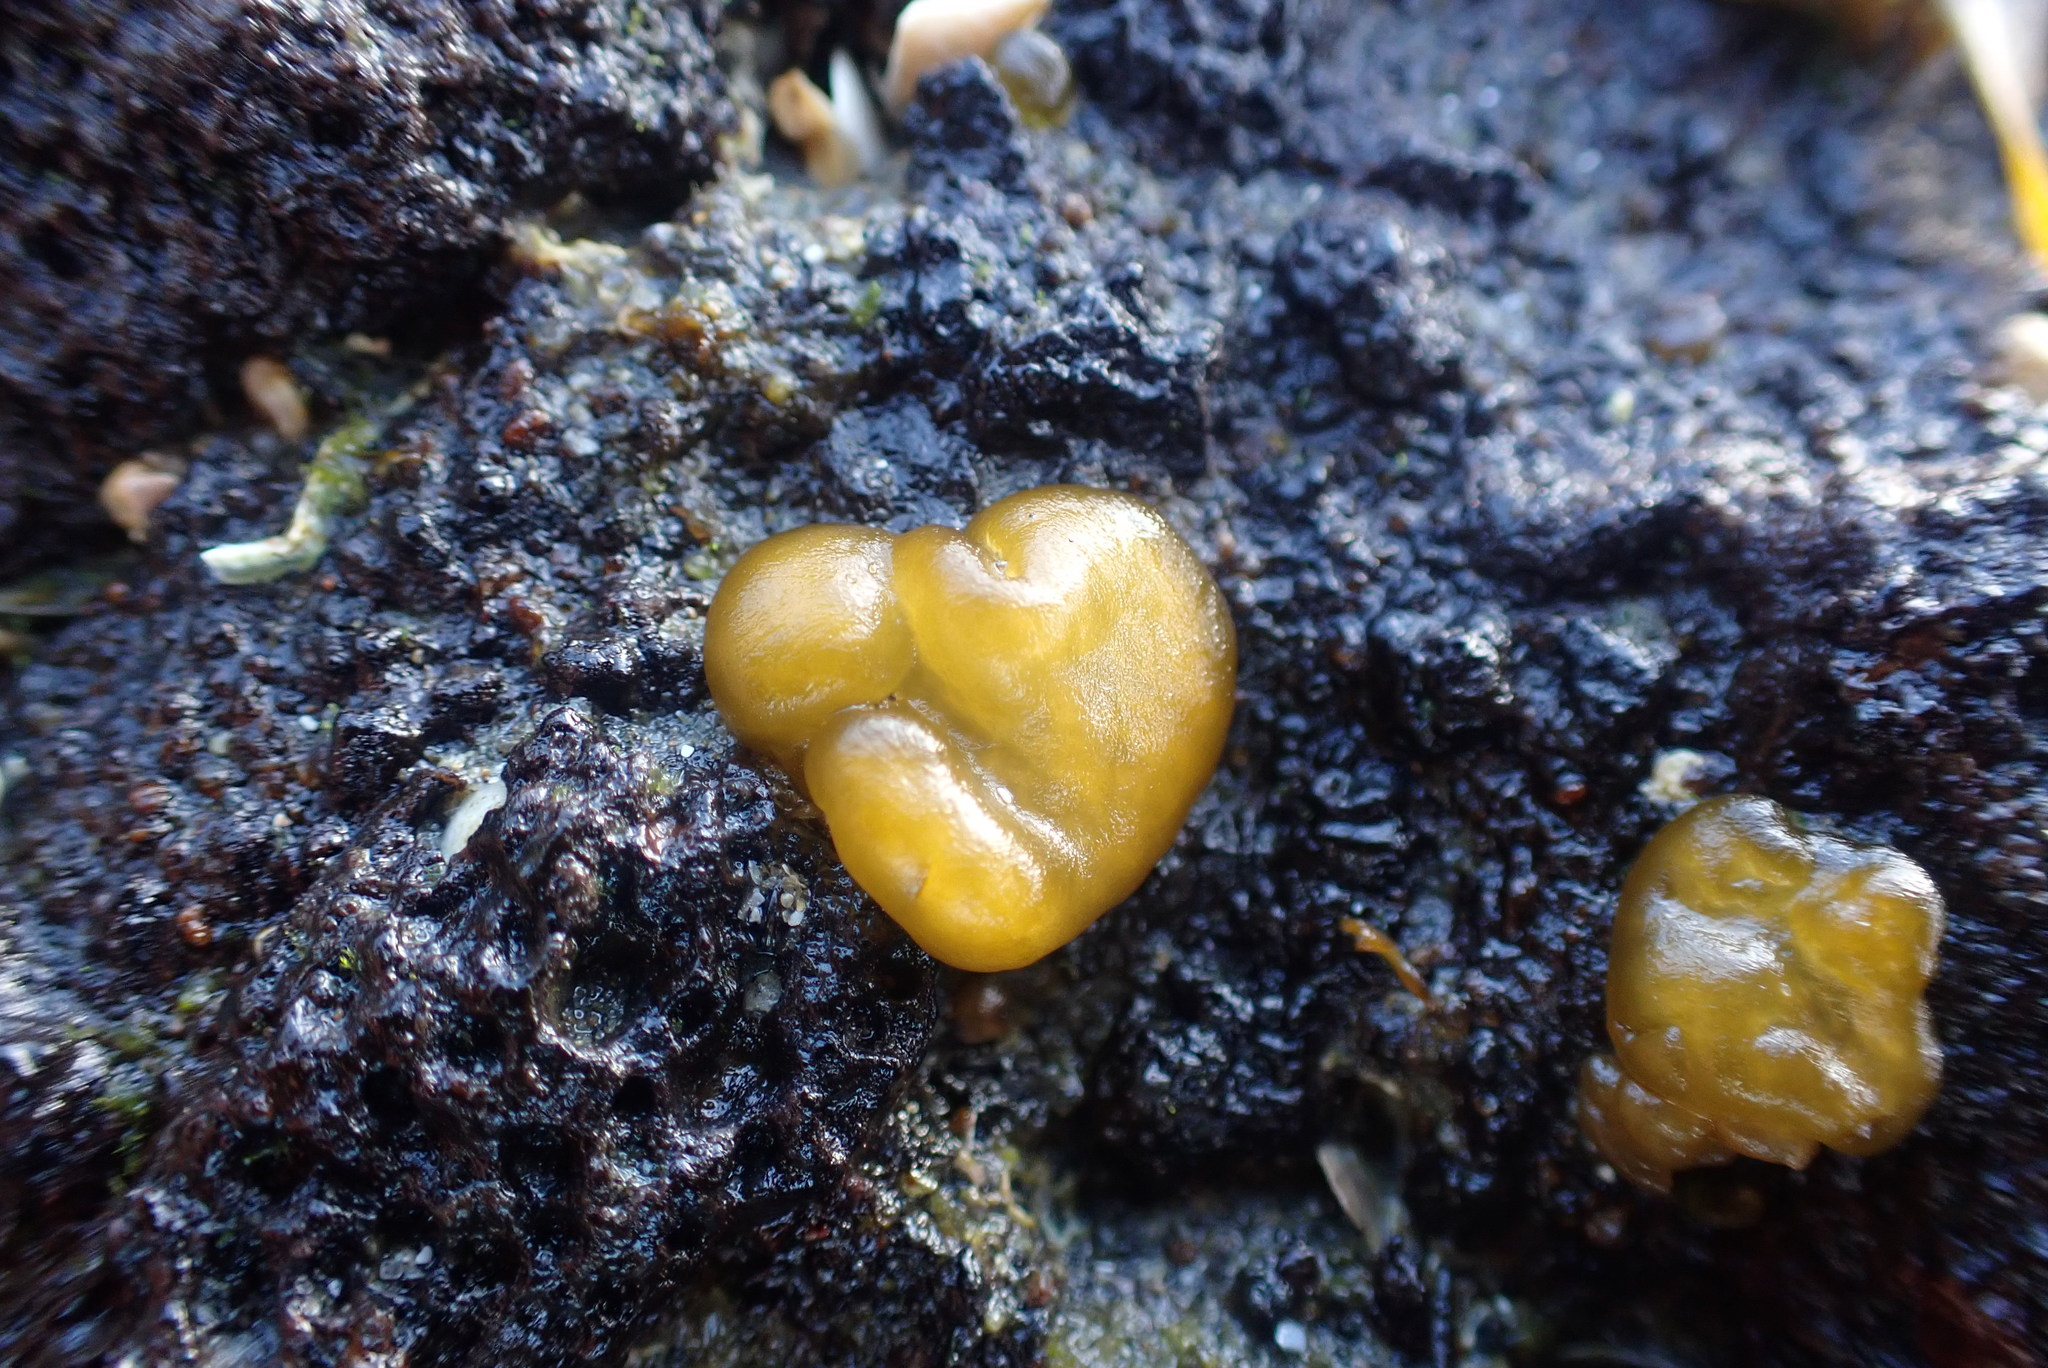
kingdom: Chromista
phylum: Ochrophyta
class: Phaeophyceae
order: Scytosiphonales
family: Scytosiphonaceae
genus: Colpomenia
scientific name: Colpomenia sinuosa
